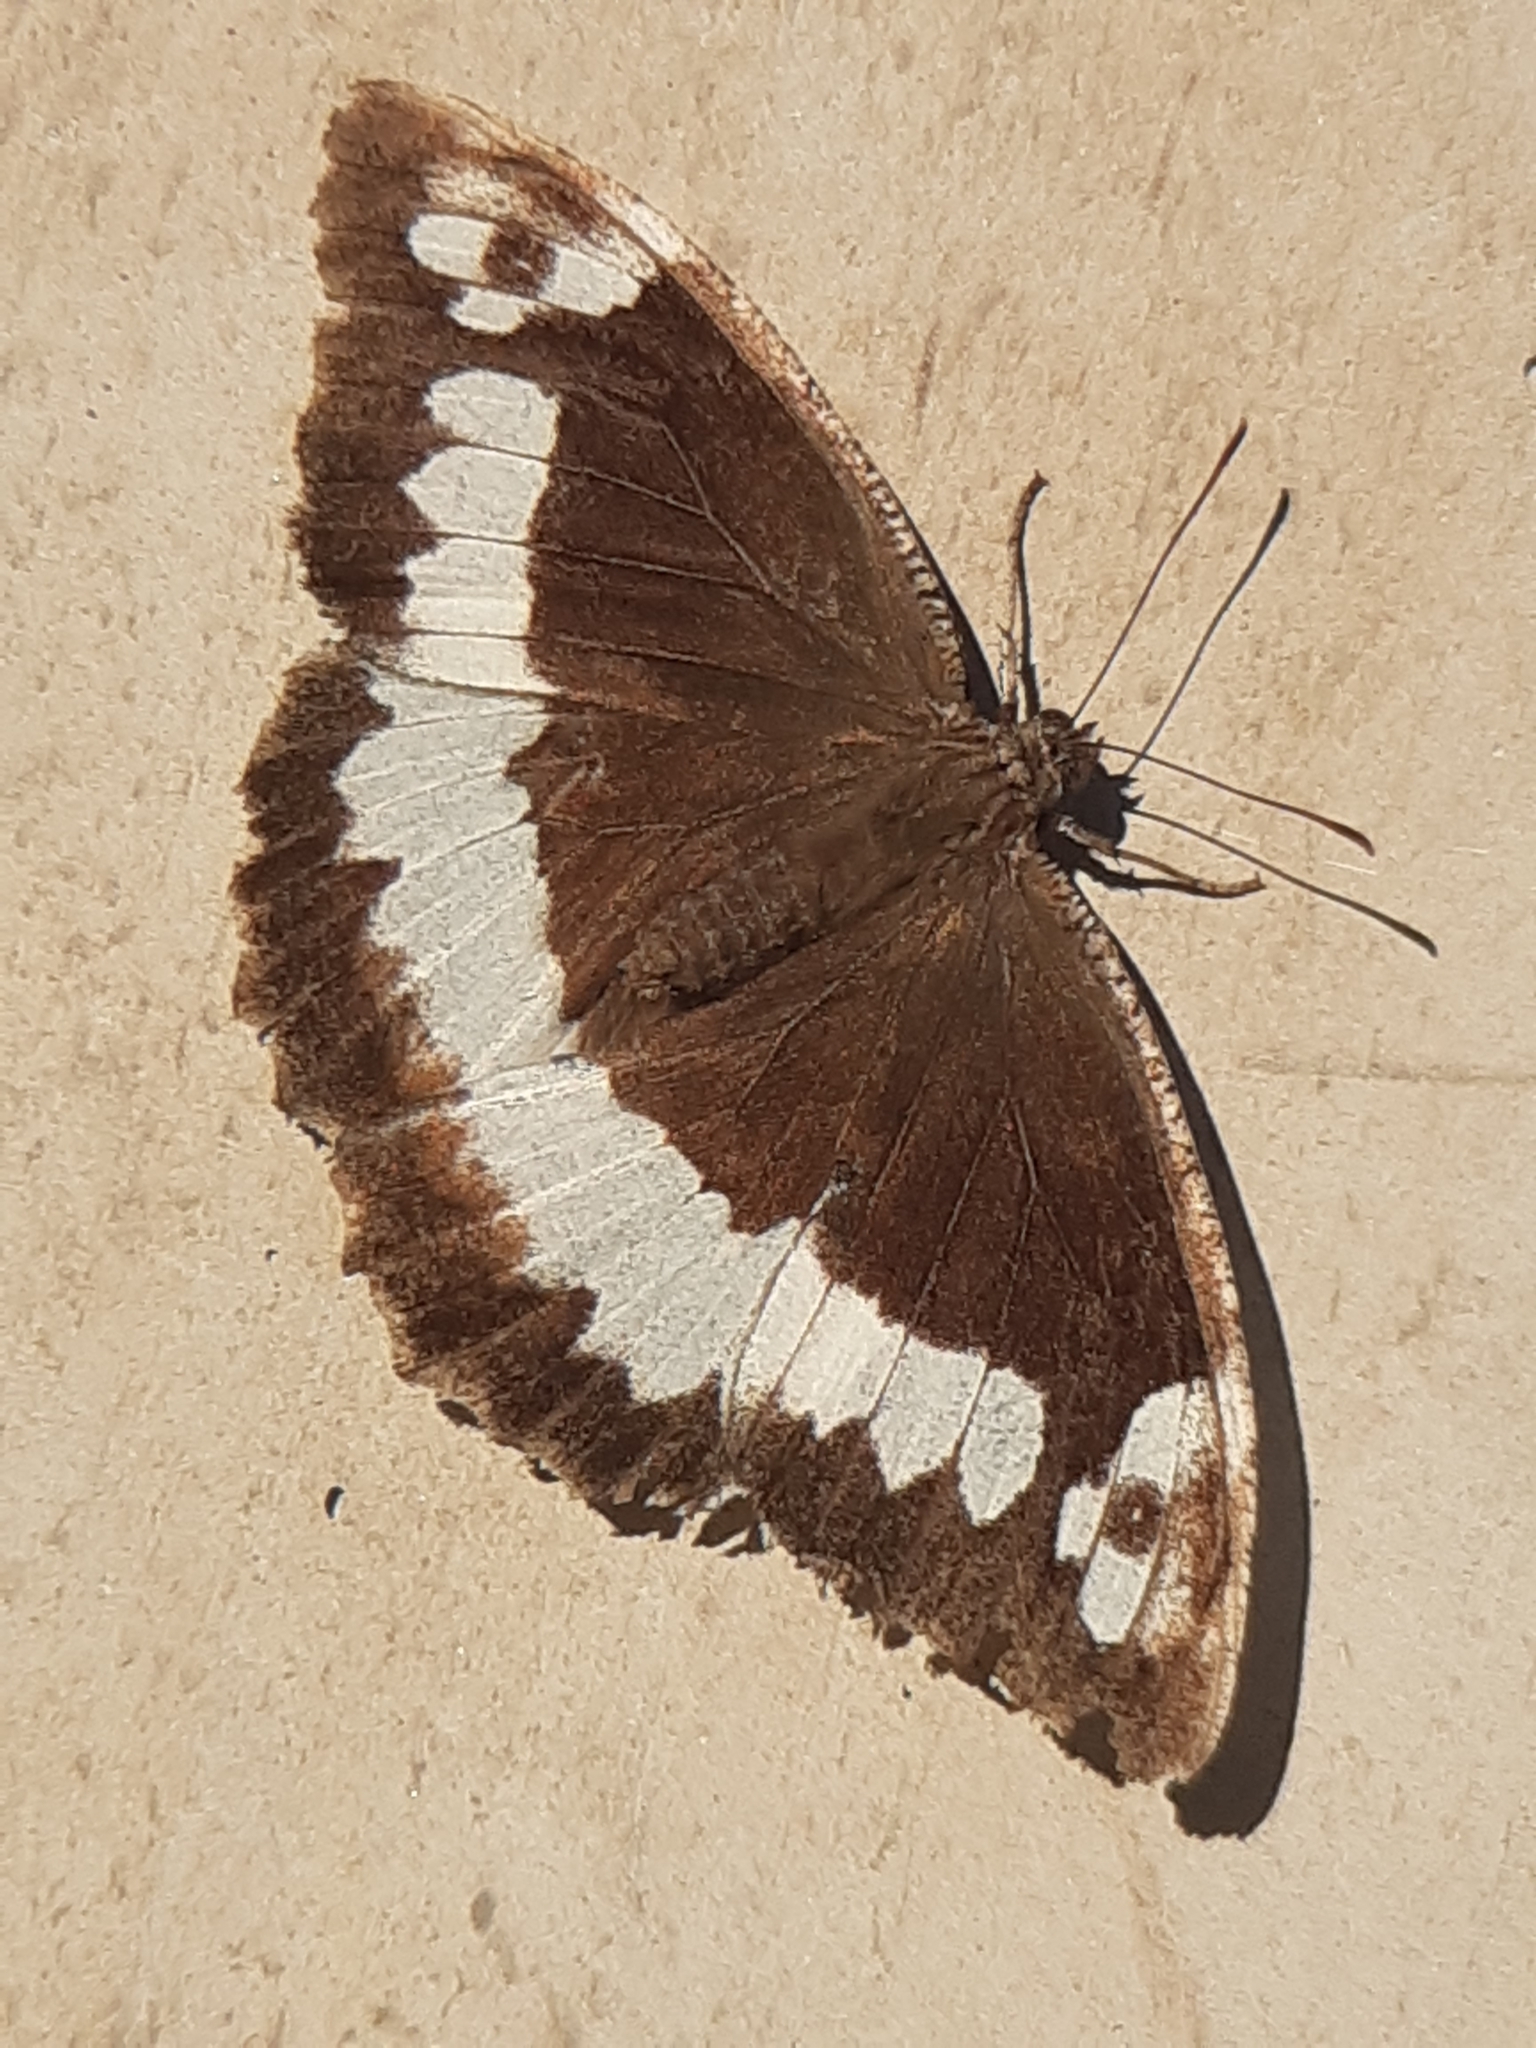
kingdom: Animalia
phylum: Arthropoda
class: Insecta
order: Lepidoptera
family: Lycaenidae
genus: Loweia
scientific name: Loweia tityrus
